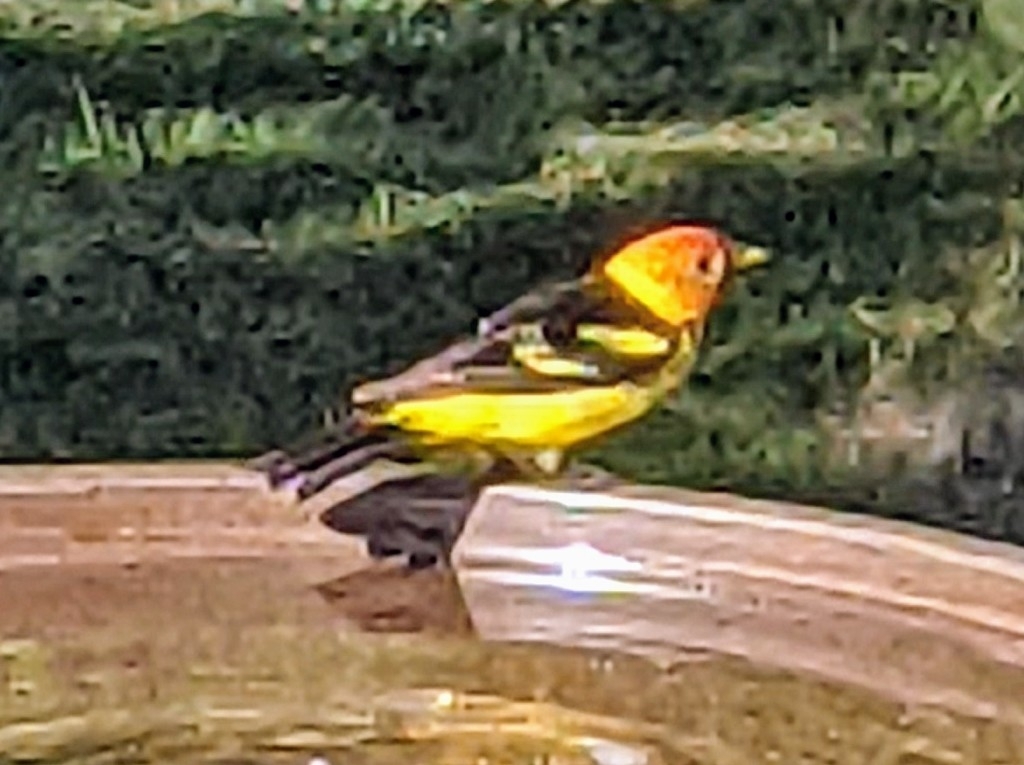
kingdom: Animalia
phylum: Chordata
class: Aves
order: Passeriformes
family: Cardinalidae
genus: Piranga
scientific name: Piranga ludoviciana
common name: Western tanager
